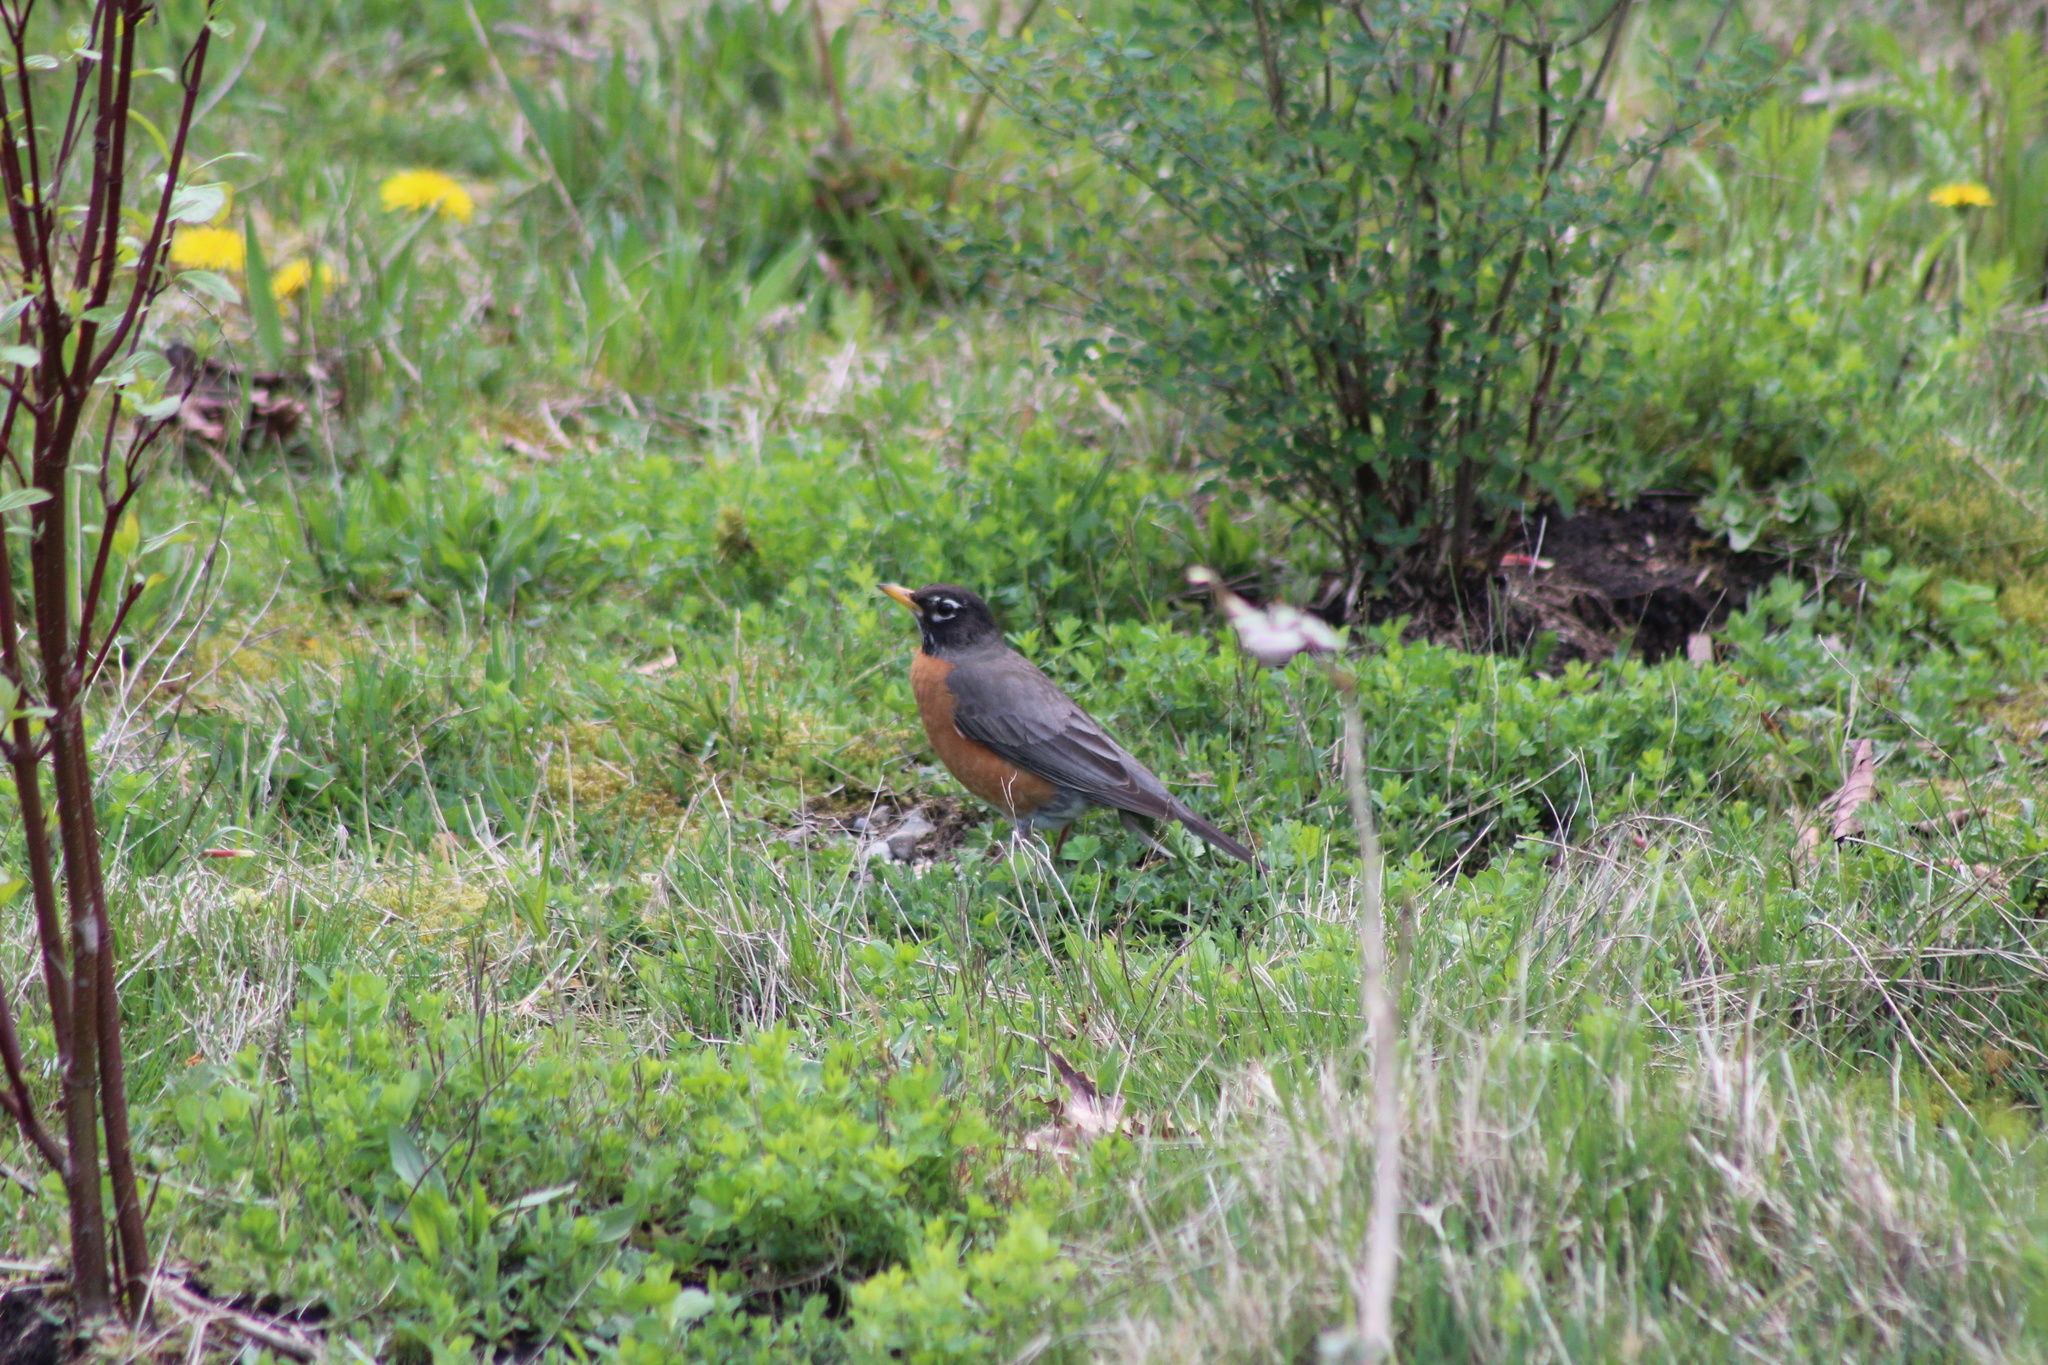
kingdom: Animalia
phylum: Chordata
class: Aves
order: Passeriformes
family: Turdidae
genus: Turdus
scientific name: Turdus migratorius
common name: American robin
